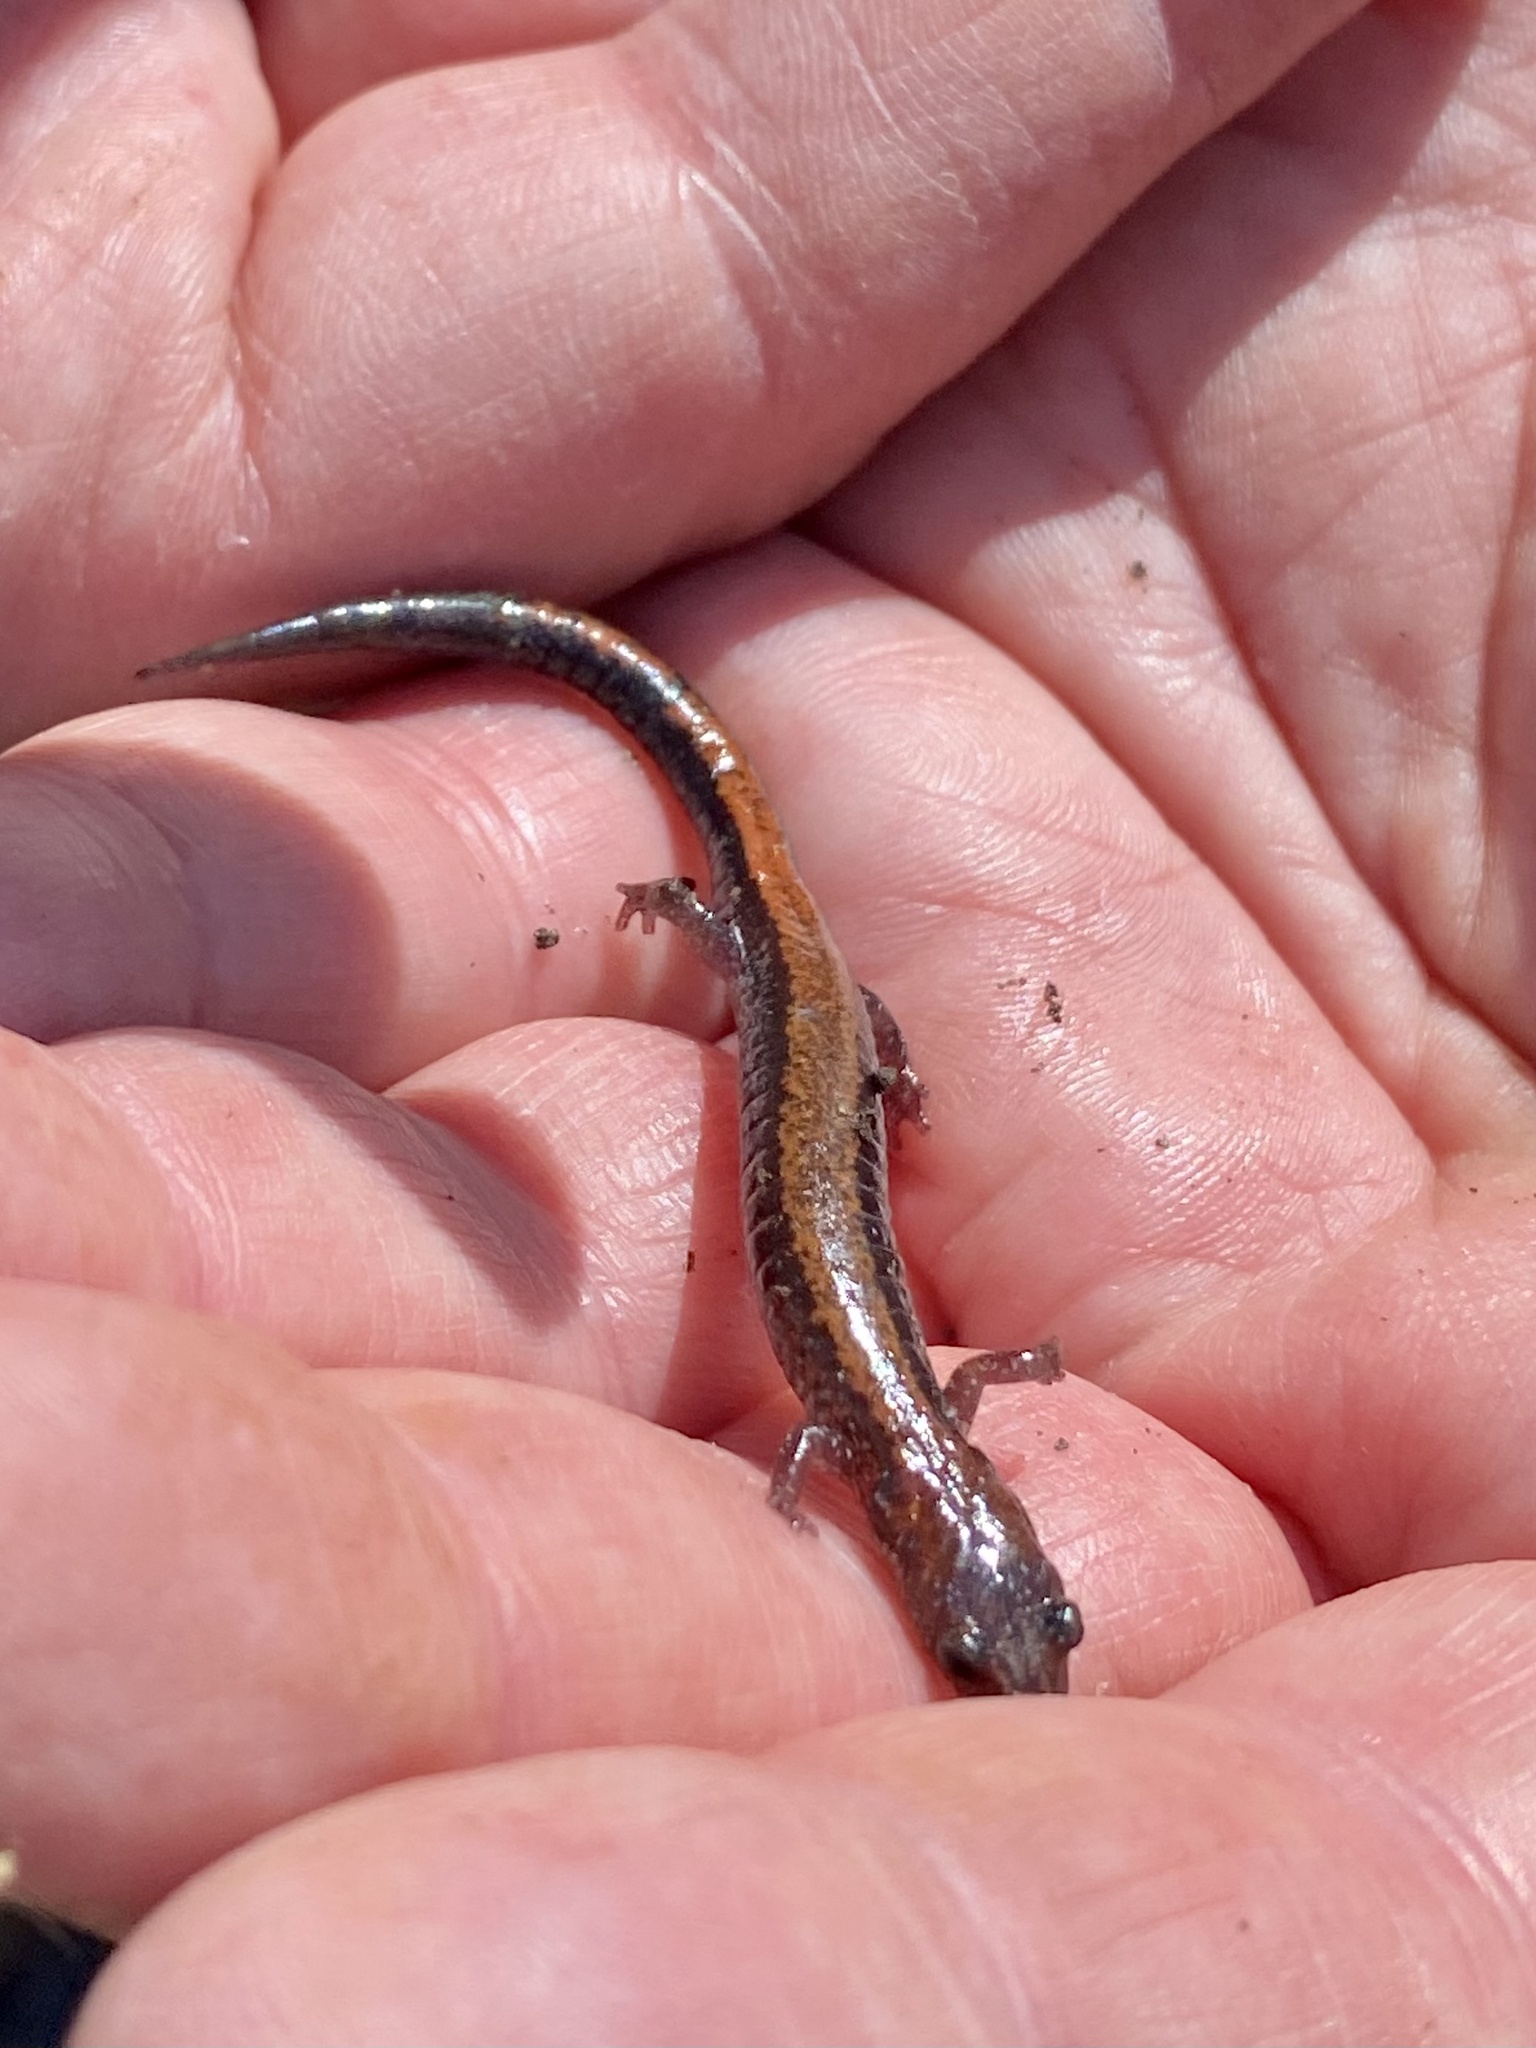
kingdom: Animalia
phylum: Chordata
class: Amphibia
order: Caudata
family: Plethodontidae
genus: Plethodon
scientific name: Plethodon cinereus
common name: Redback salamander
